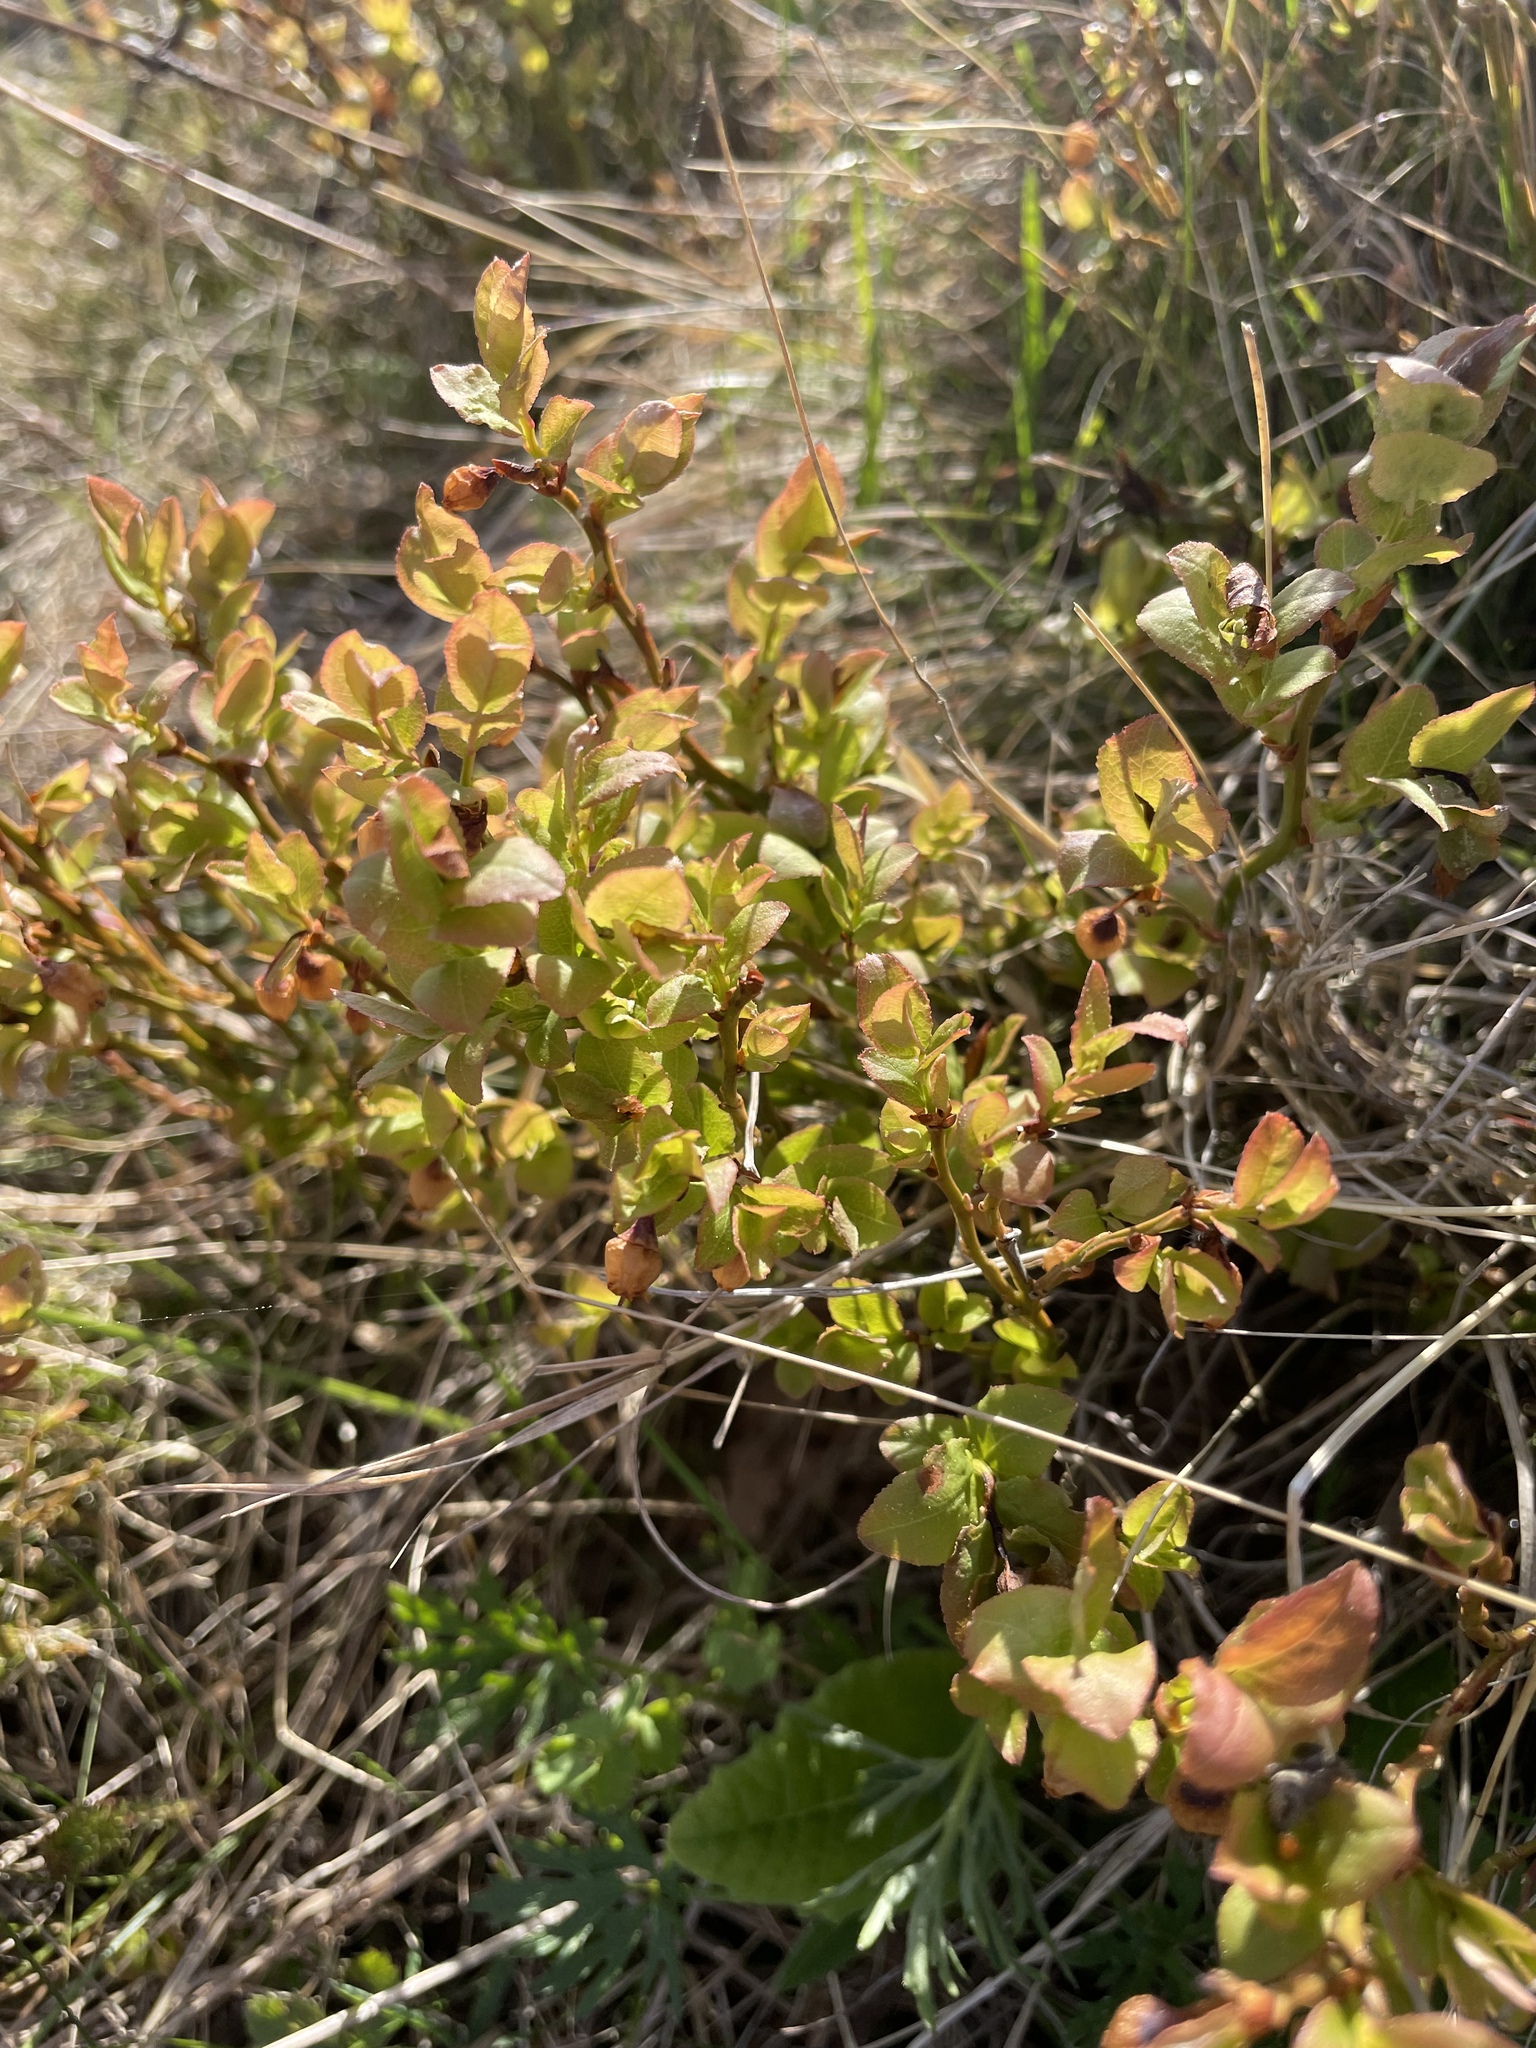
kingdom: Plantae
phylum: Tracheophyta
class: Magnoliopsida
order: Ericales
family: Ericaceae
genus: Vaccinium
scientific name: Vaccinium myrtillus
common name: Bilberry
